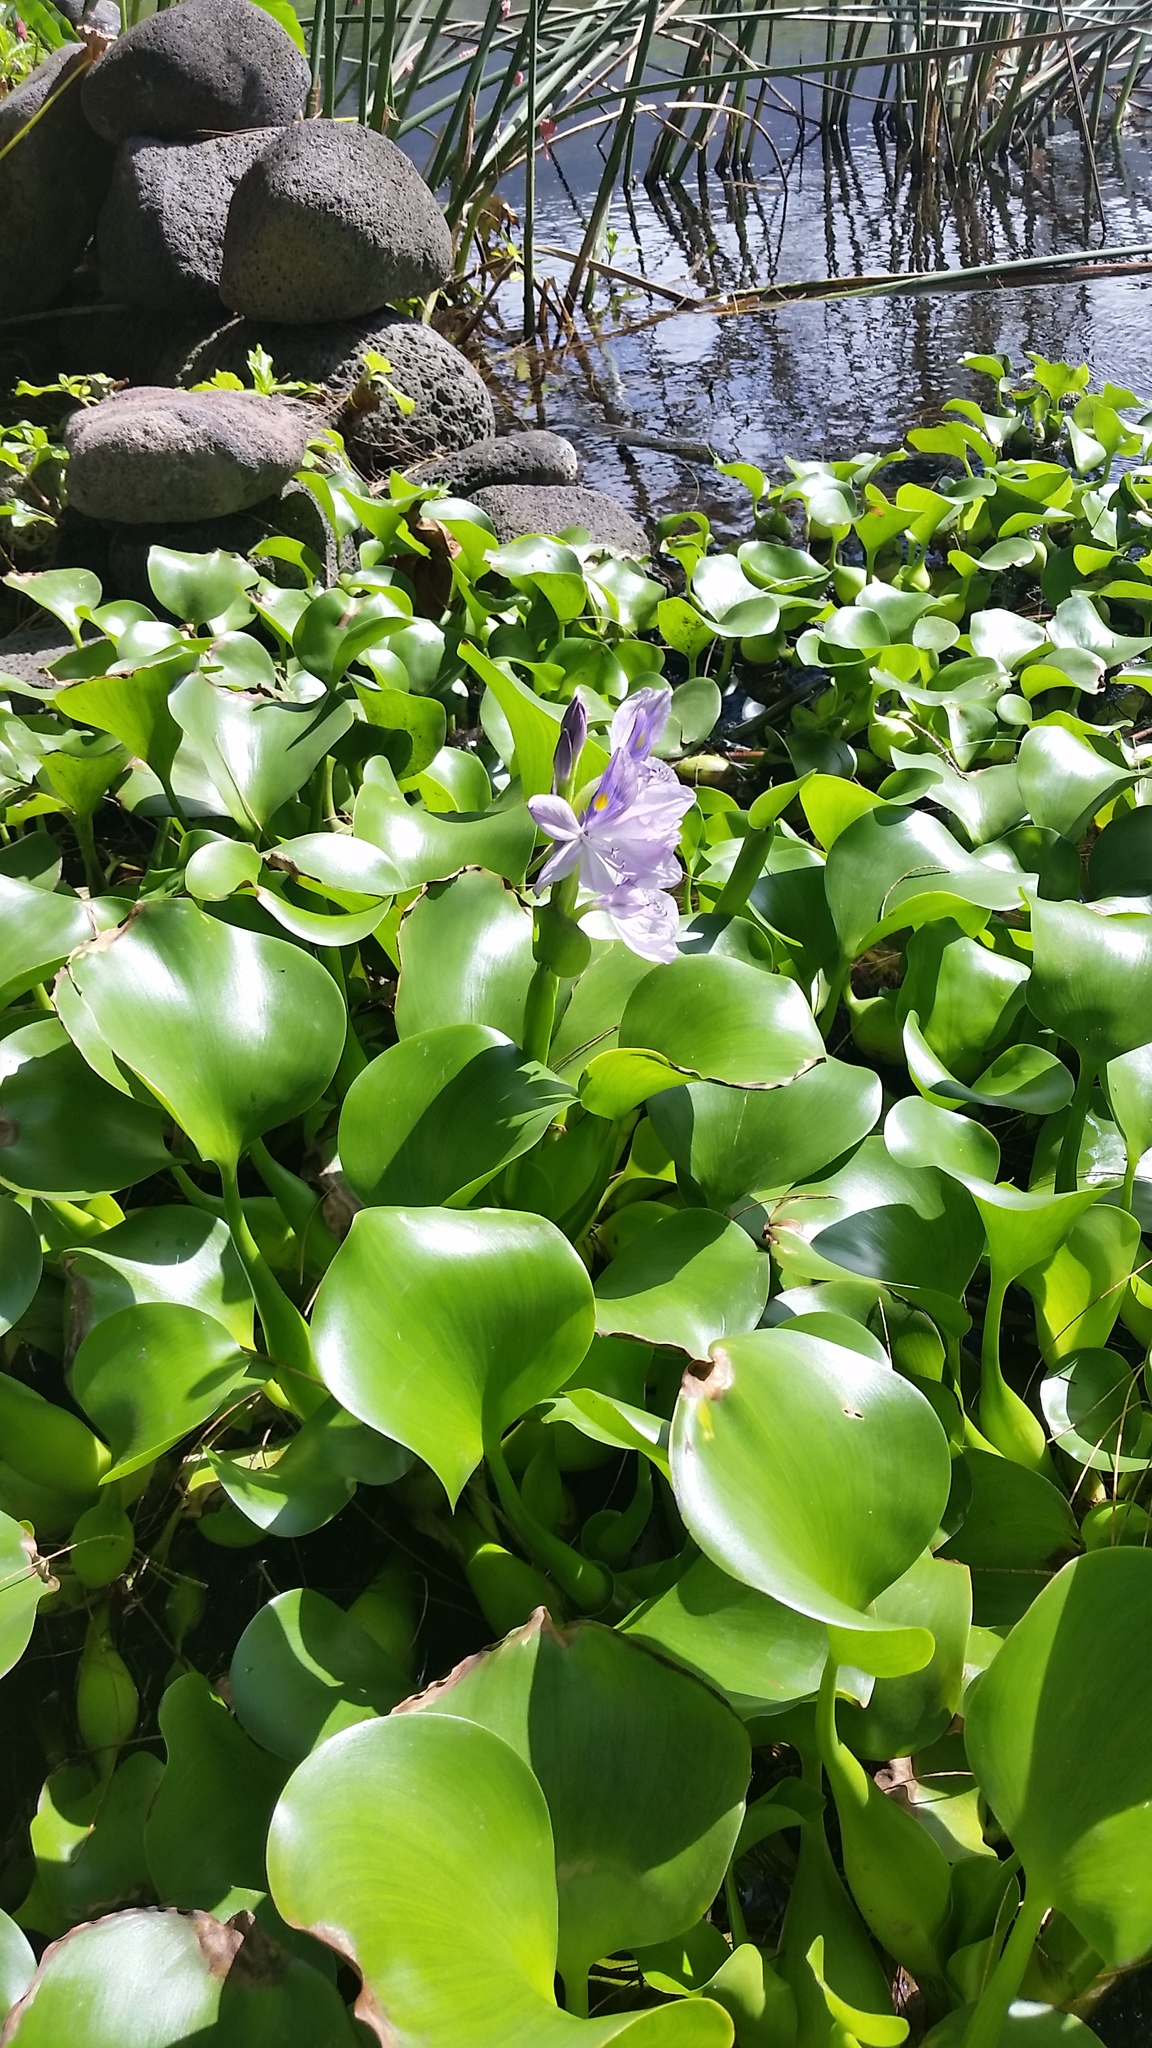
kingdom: Plantae
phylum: Tracheophyta
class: Liliopsida
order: Commelinales
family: Pontederiaceae
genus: Pontederia
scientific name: Pontederia crassipes
